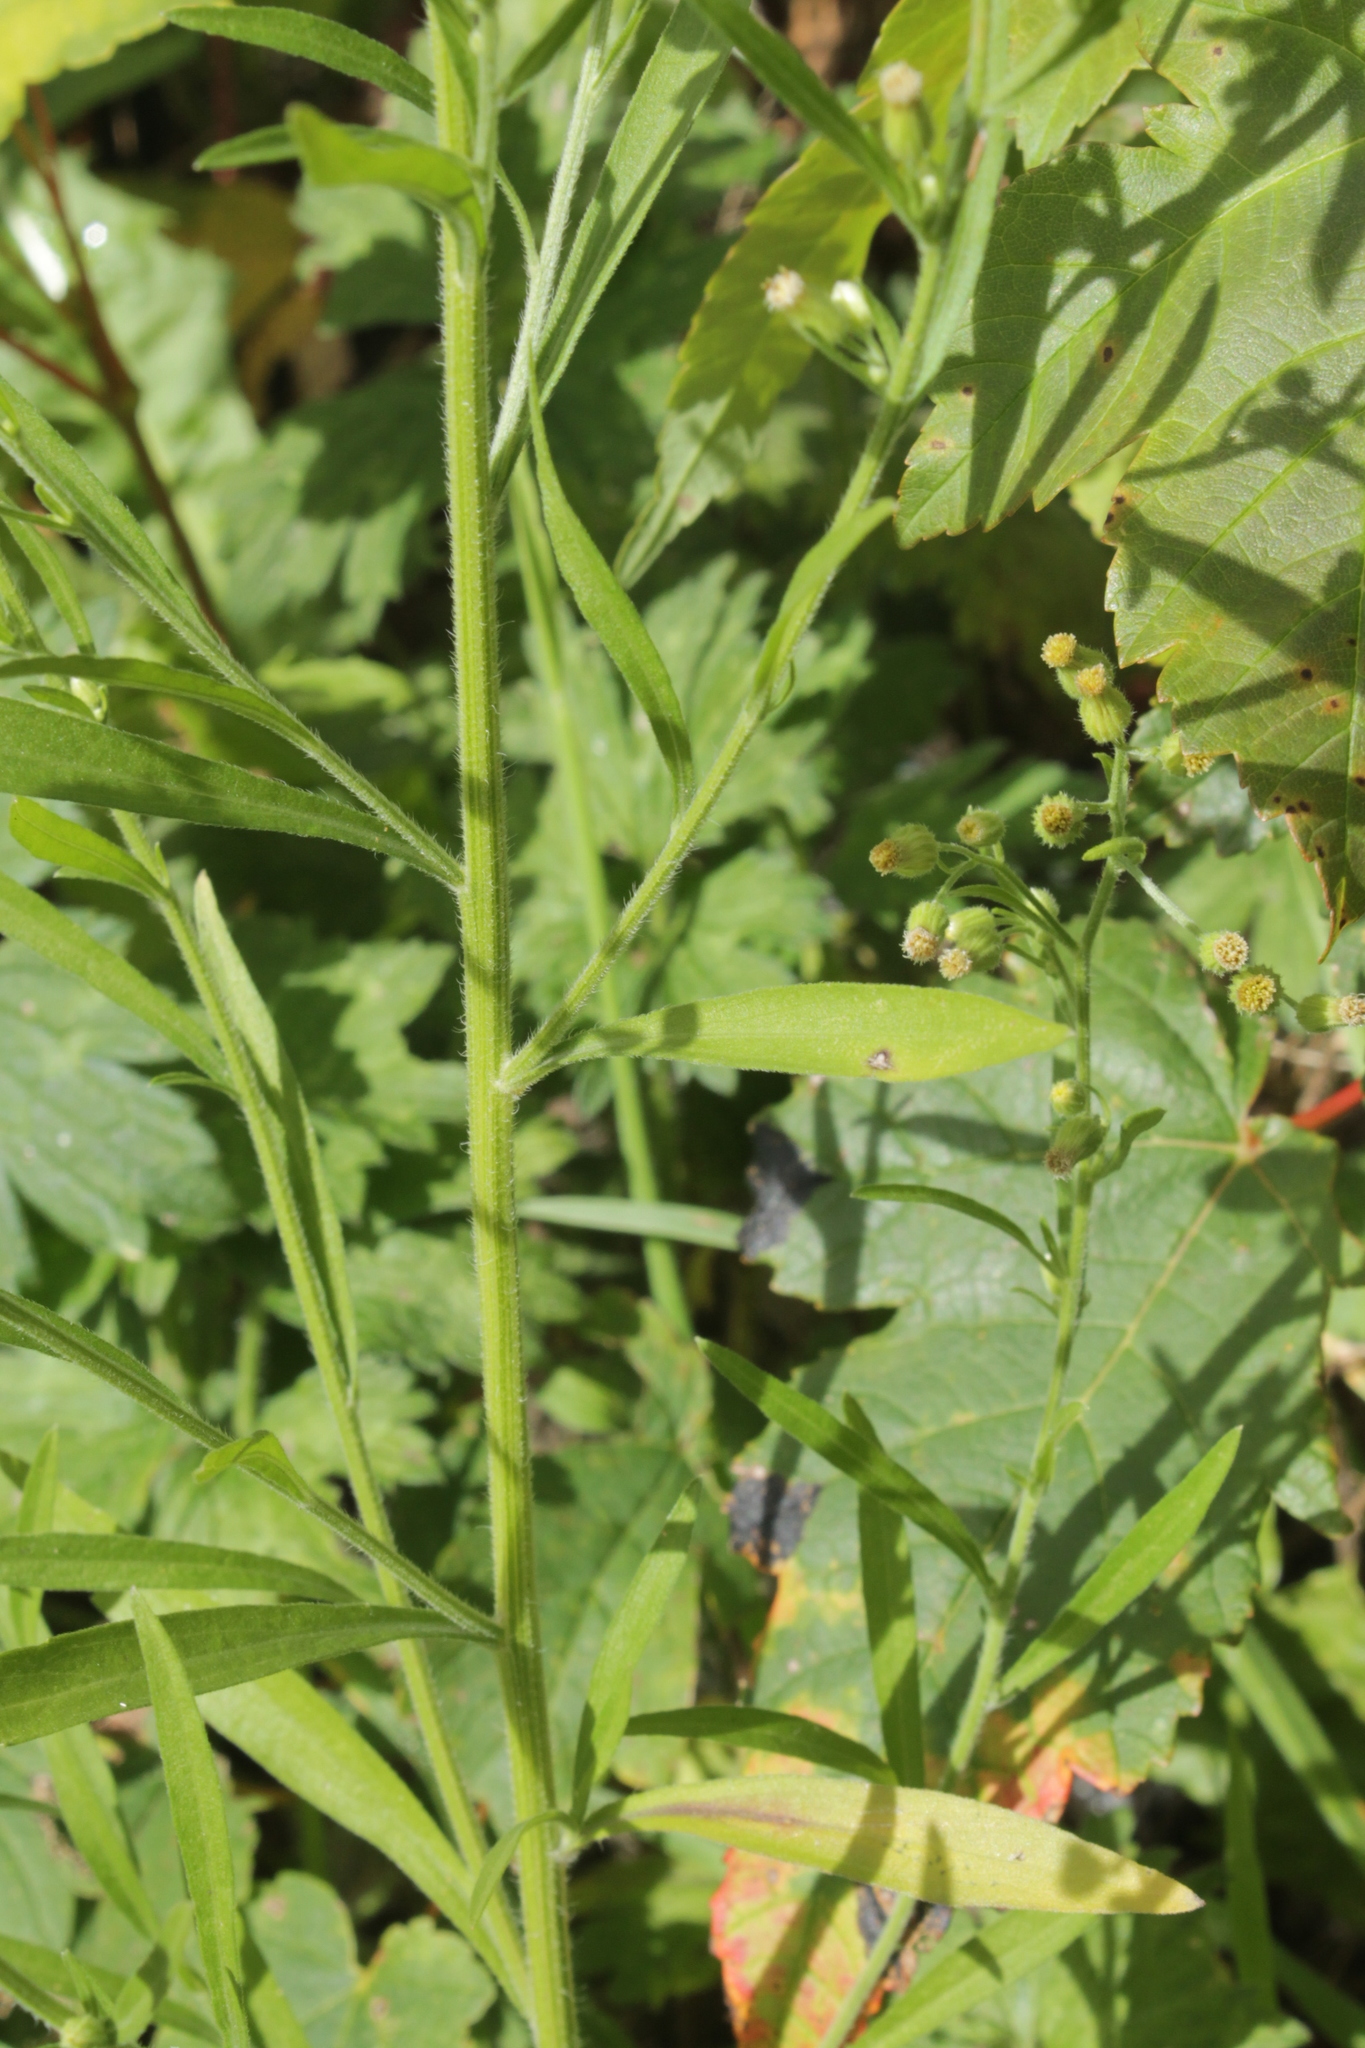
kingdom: Plantae
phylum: Tracheophyta
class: Magnoliopsida
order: Asterales
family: Asteraceae
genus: Erigeron
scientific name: Erigeron sumatrensis
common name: Daisy
